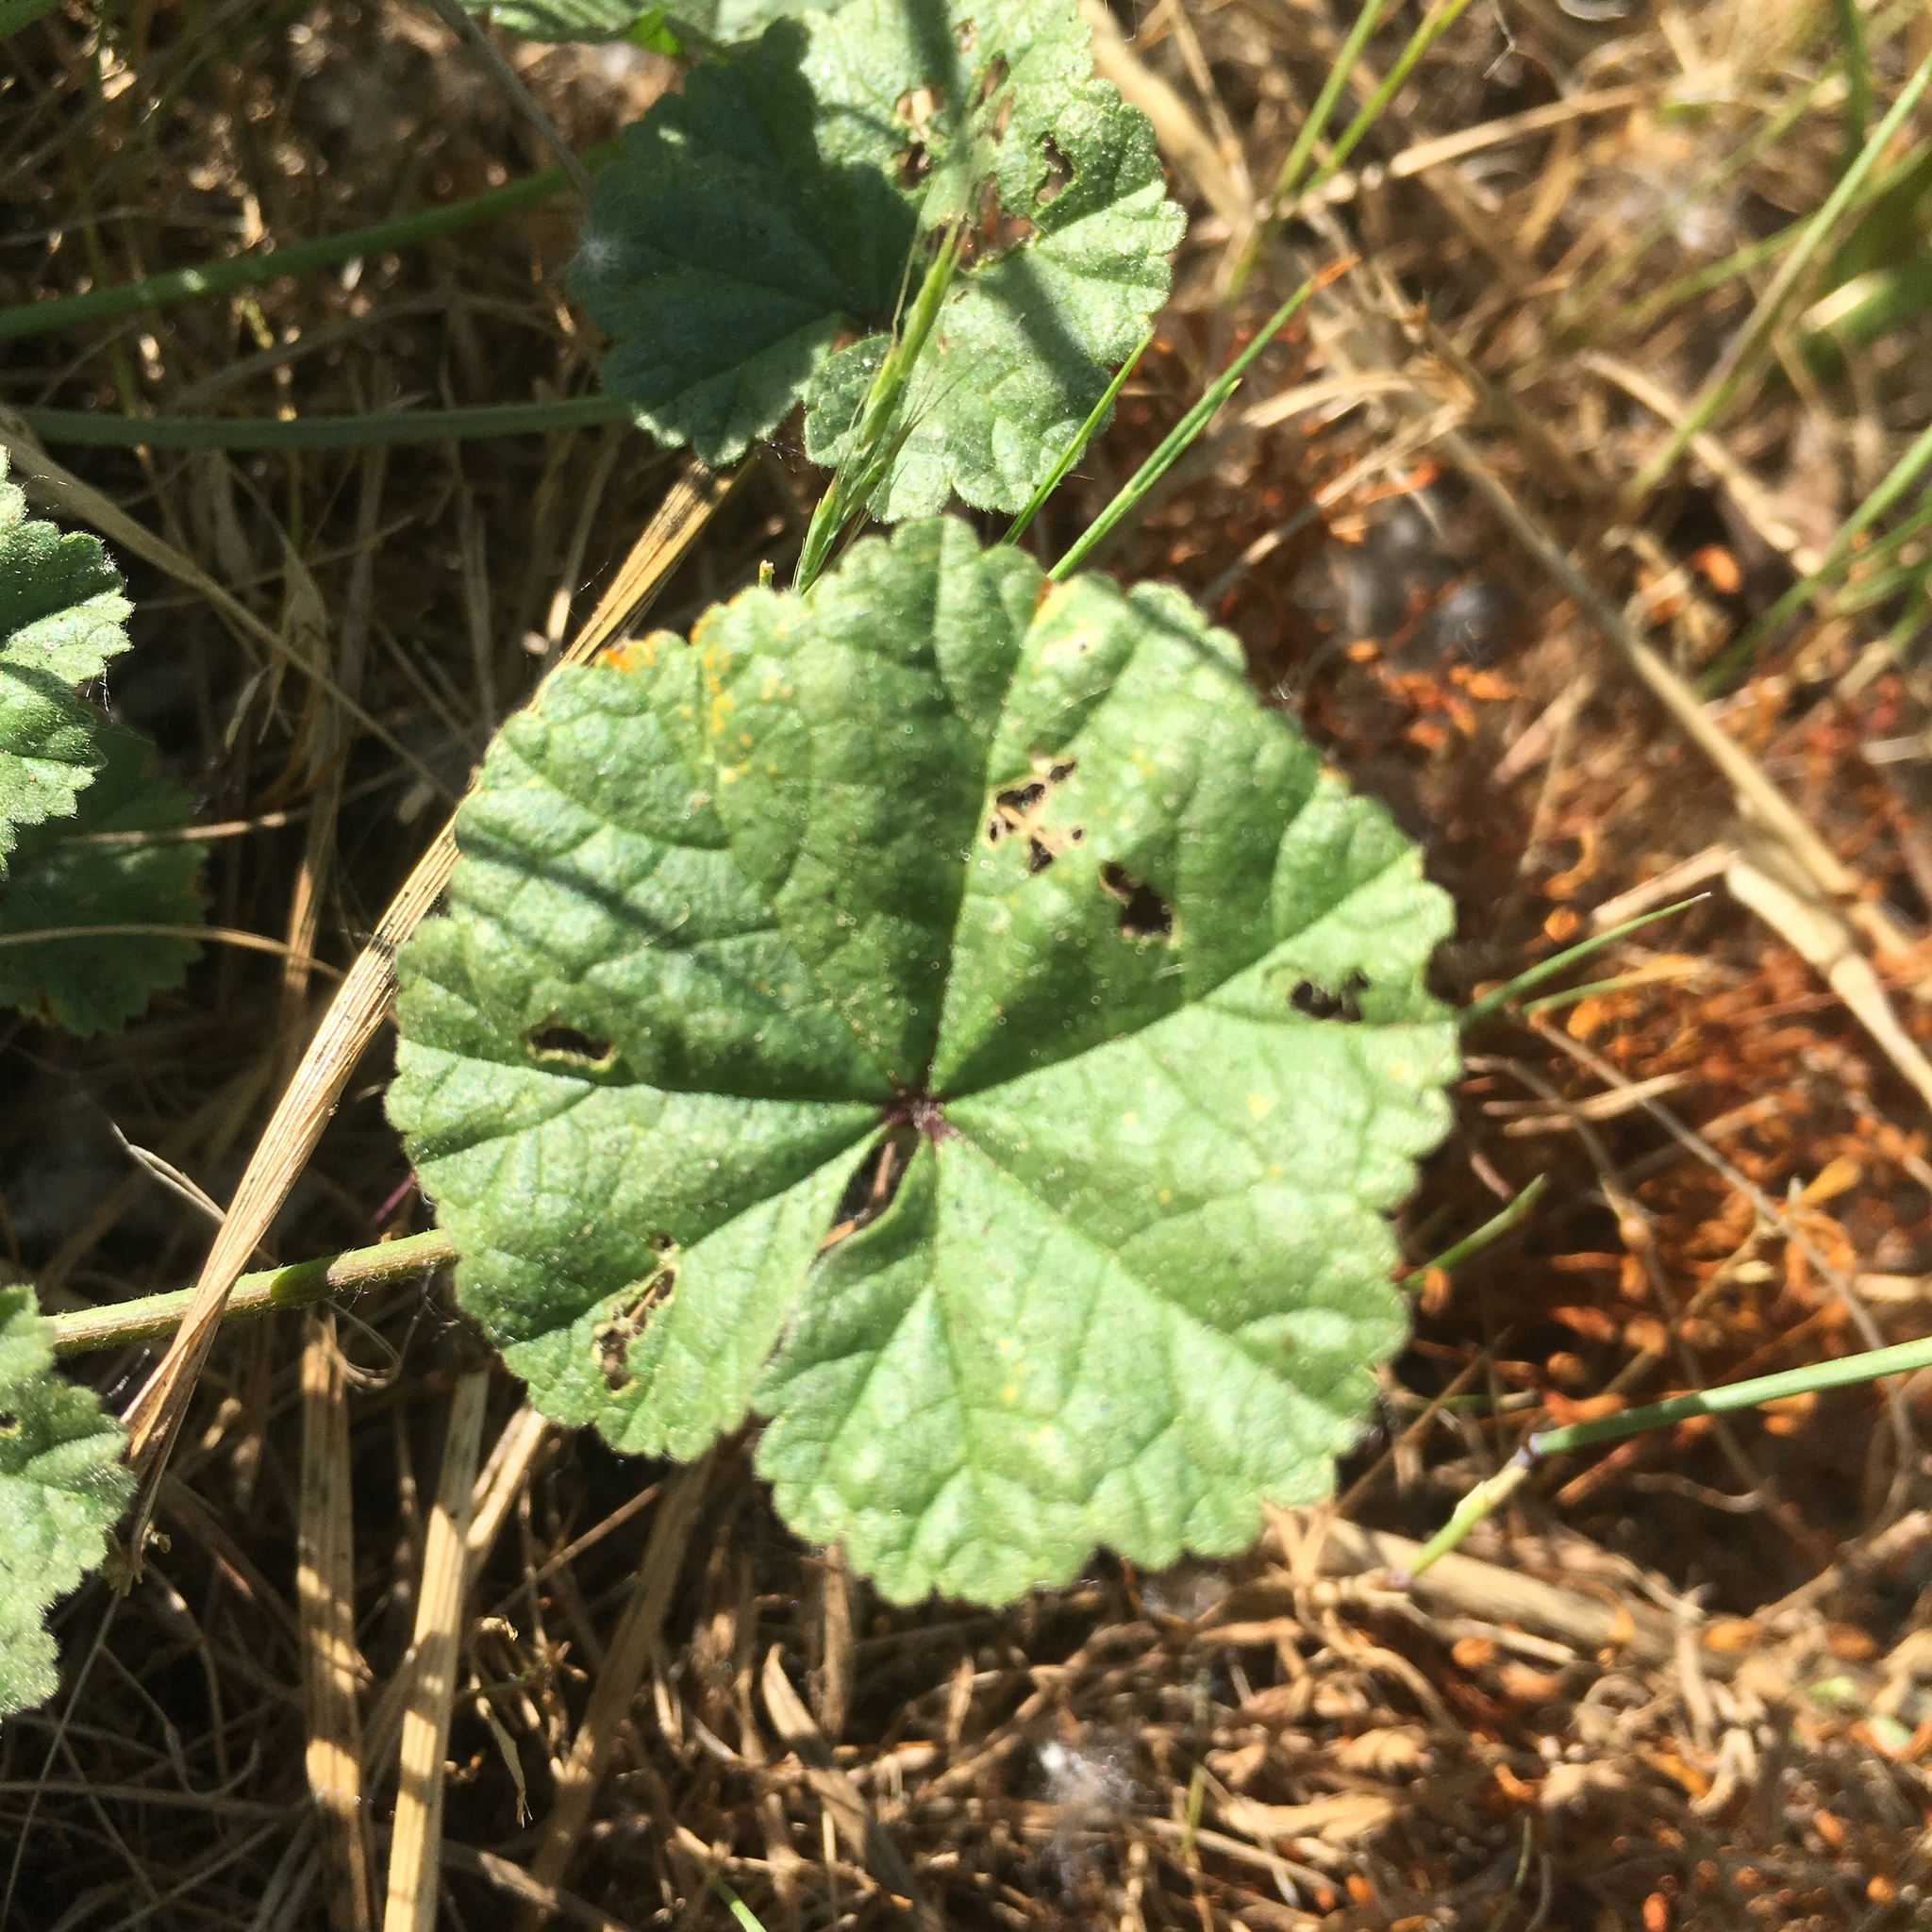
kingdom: Plantae
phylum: Tracheophyta
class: Magnoliopsida
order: Malvales
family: Malvaceae
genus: Malva
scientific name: Malva neglecta
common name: Common mallow
